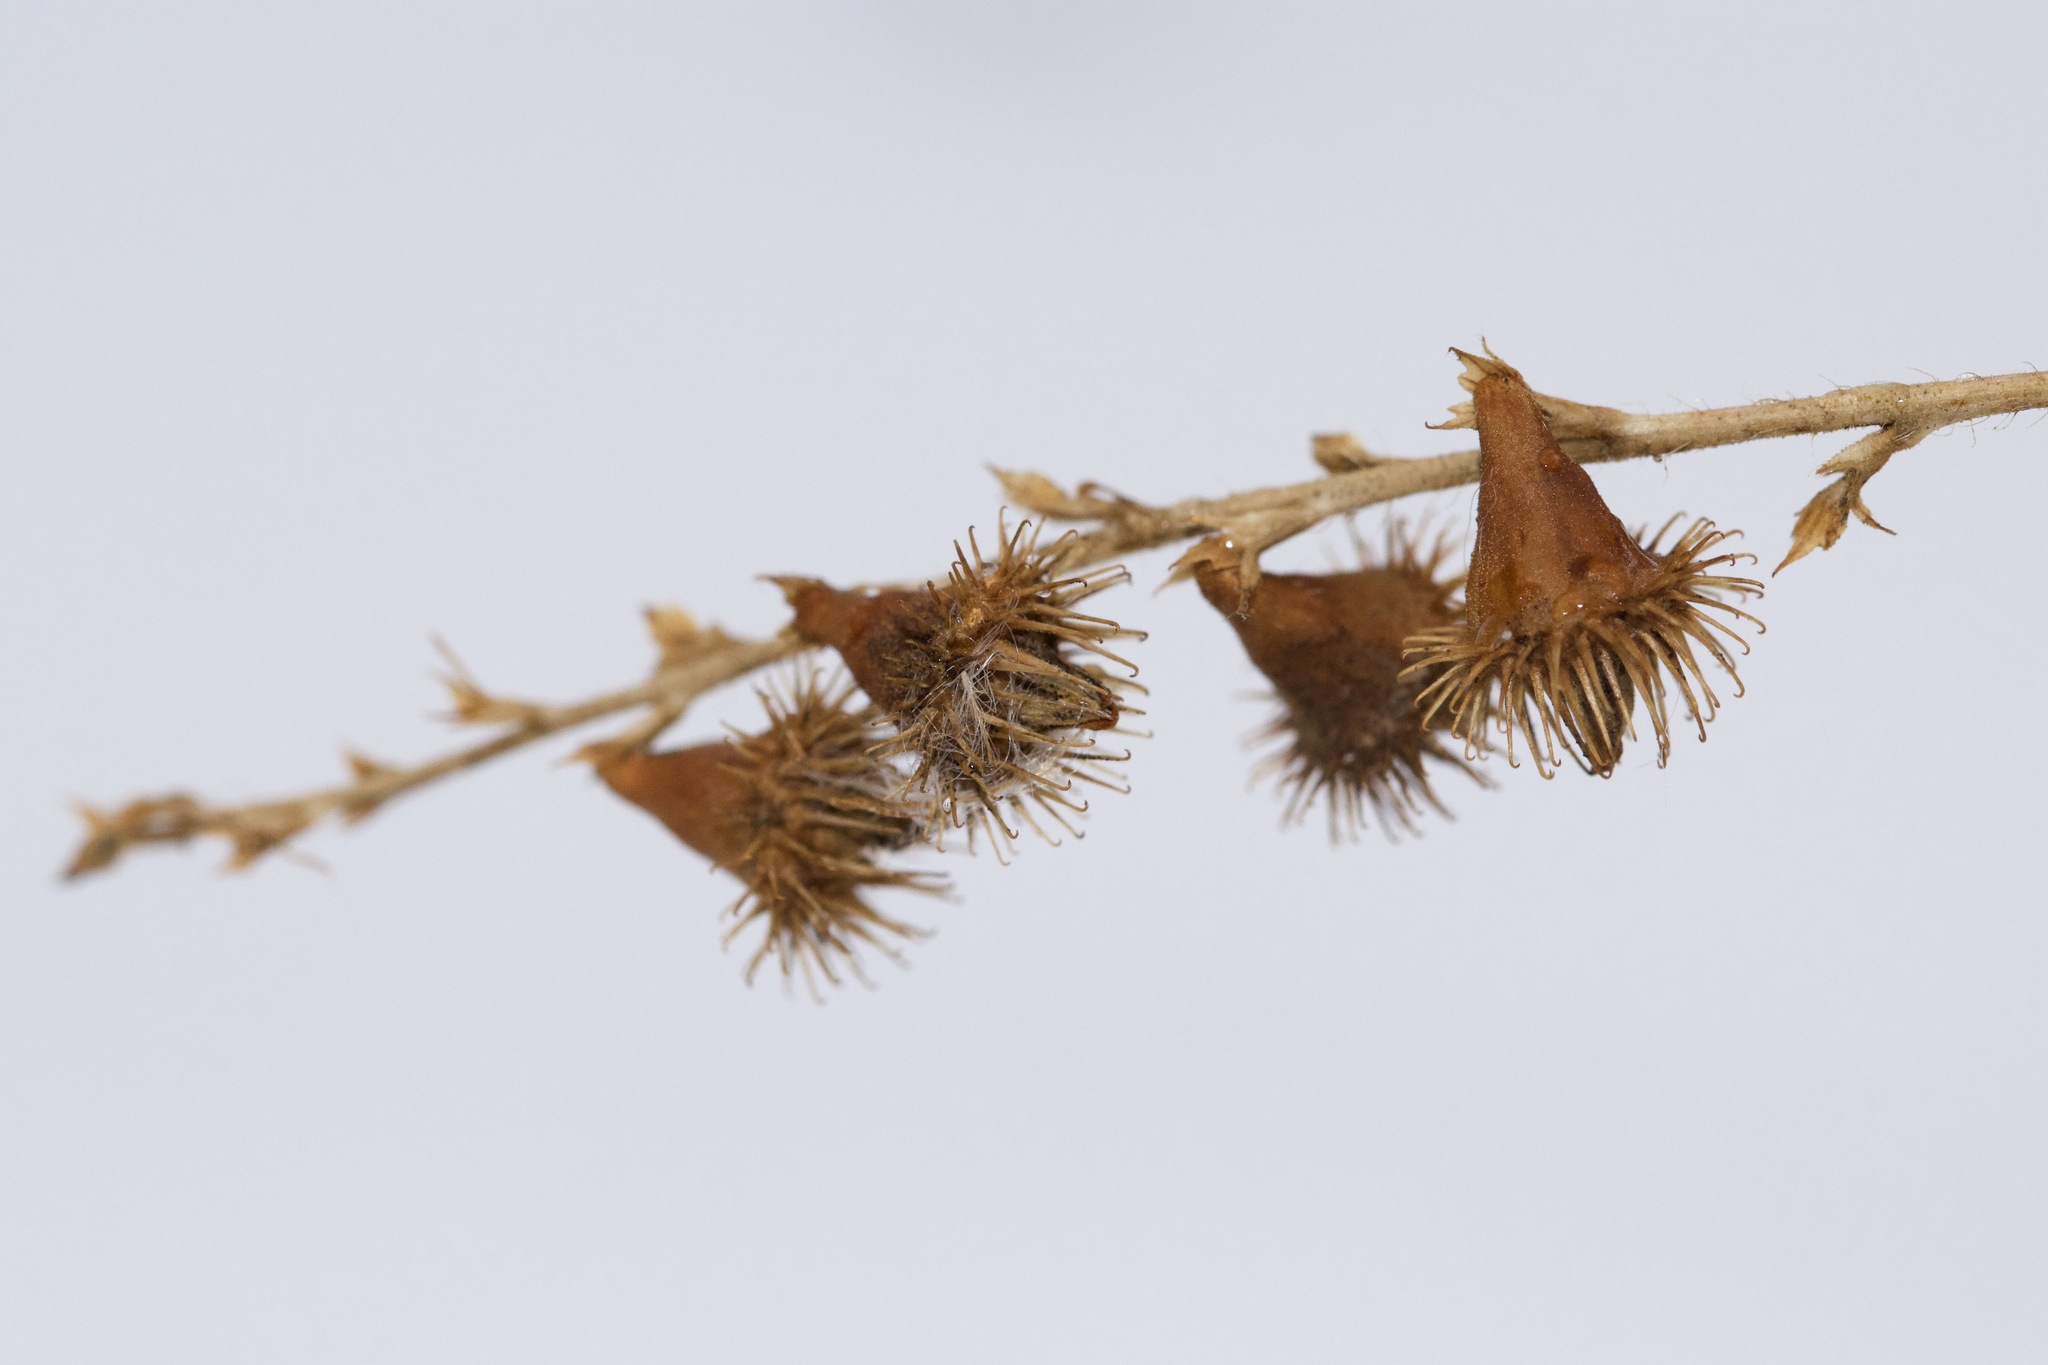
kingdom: Plantae
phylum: Tracheophyta
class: Magnoliopsida
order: Rosales
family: Rosaceae
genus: Agrimonia
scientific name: Agrimonia gryposepala
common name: Common agrimony
